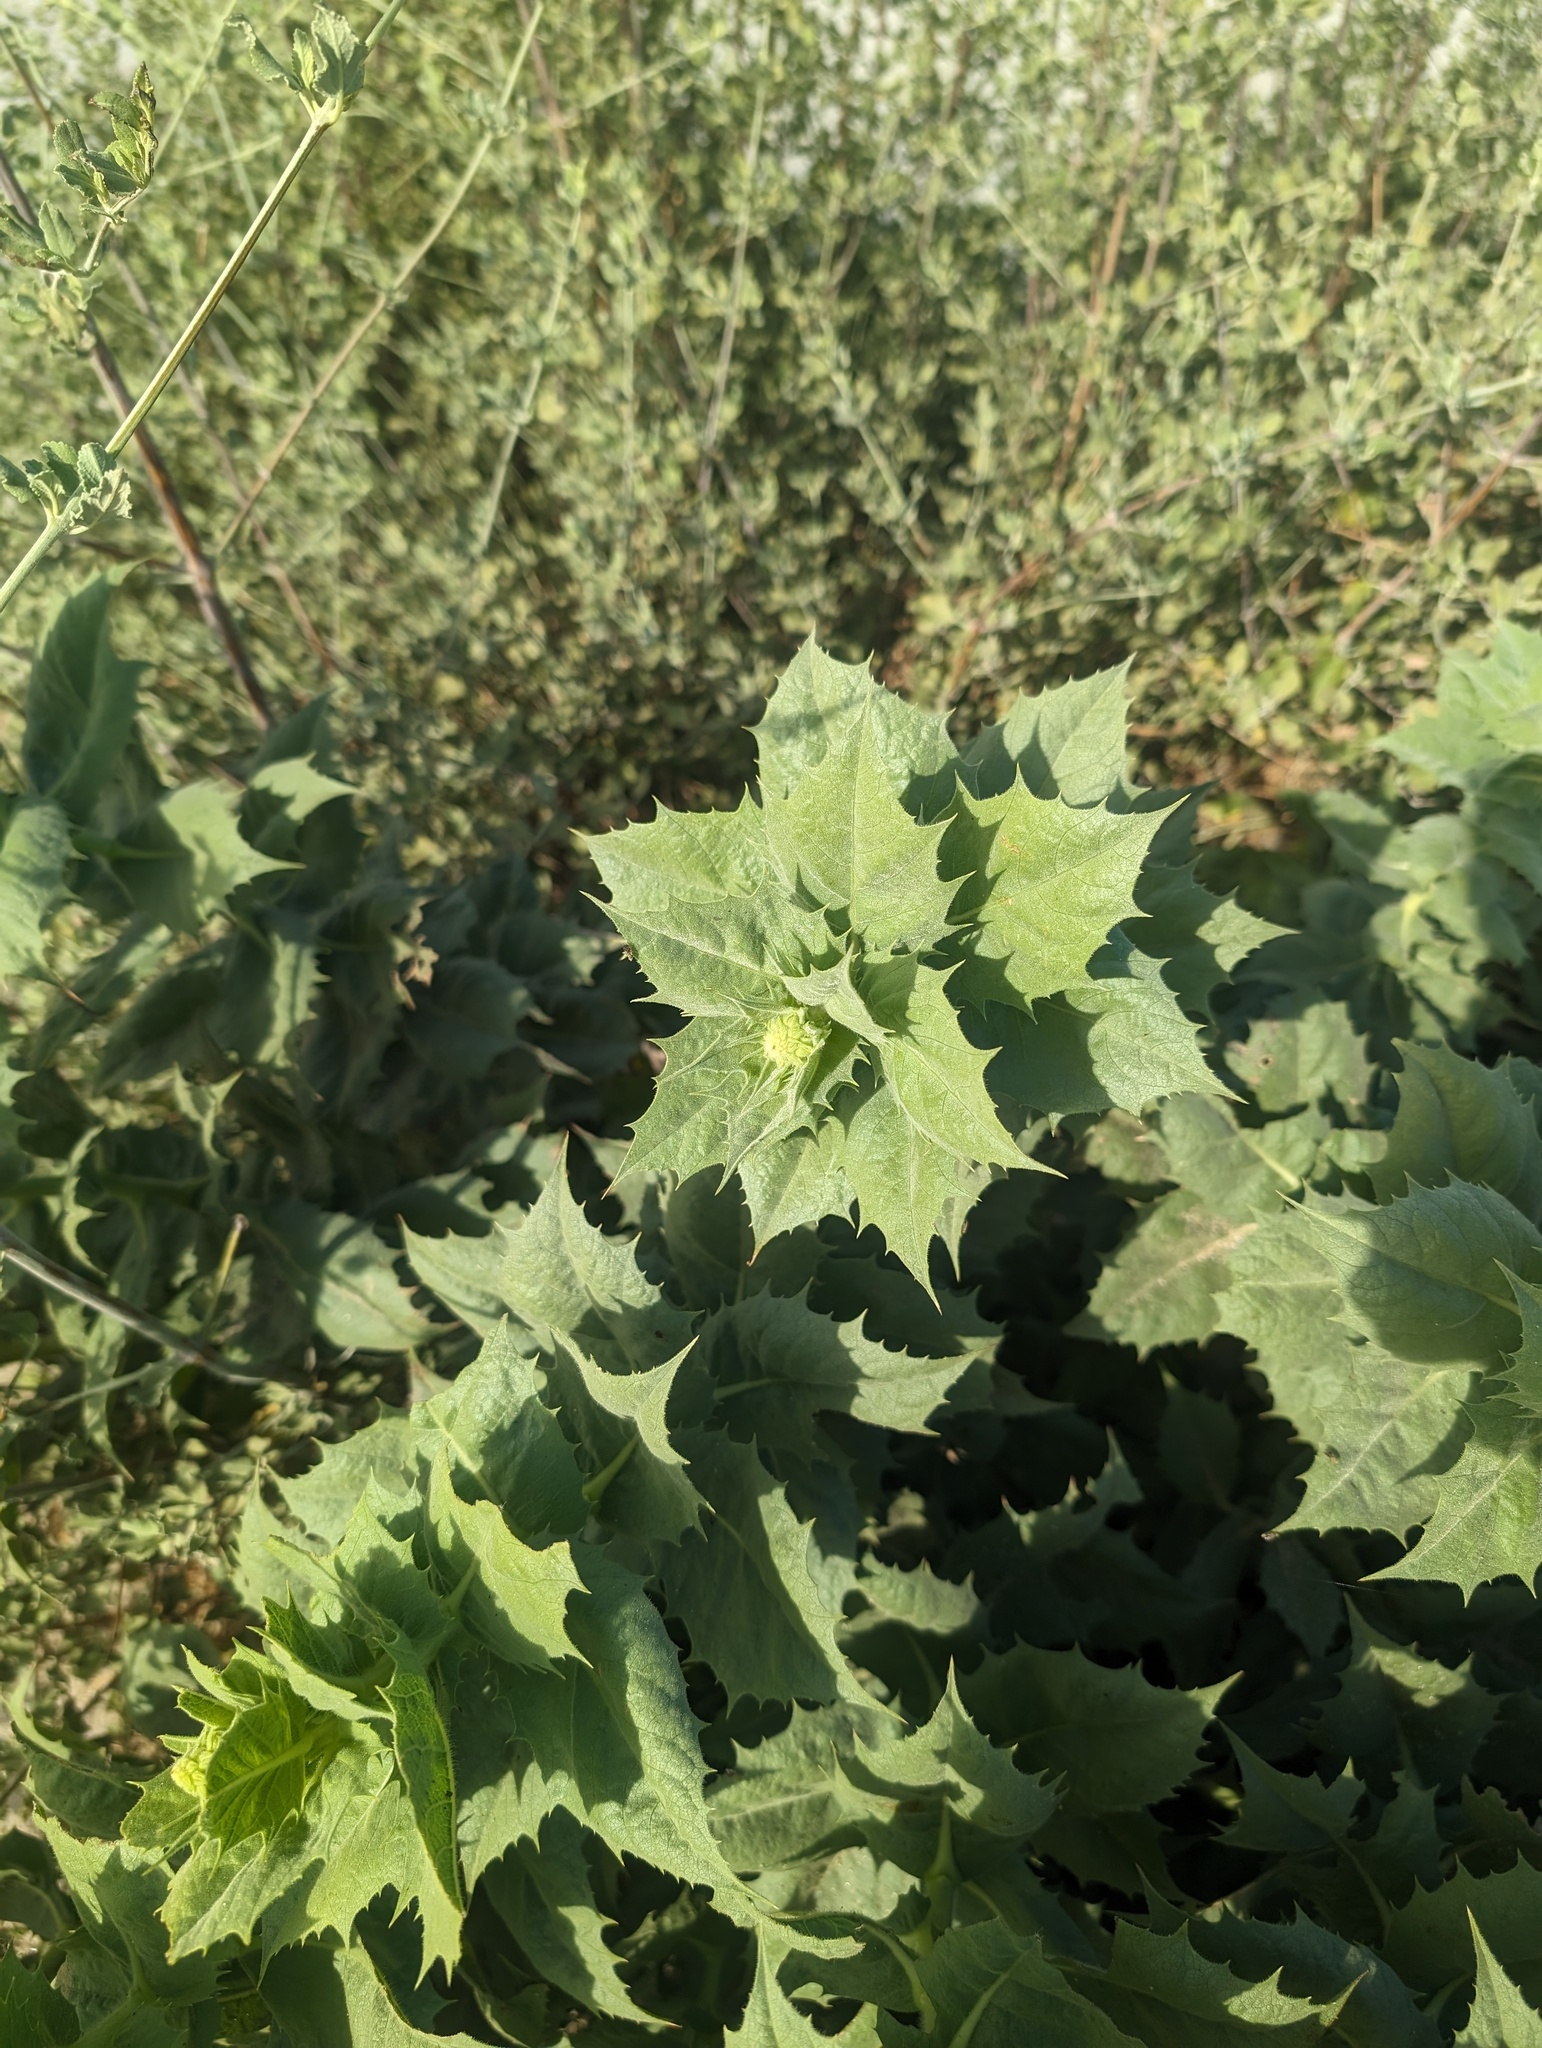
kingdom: Plantae
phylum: Tracheophyta
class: Magnoliopsida
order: Asterales
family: Asteraceae
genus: Ambrosia
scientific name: Ambrosia ilicifolia
